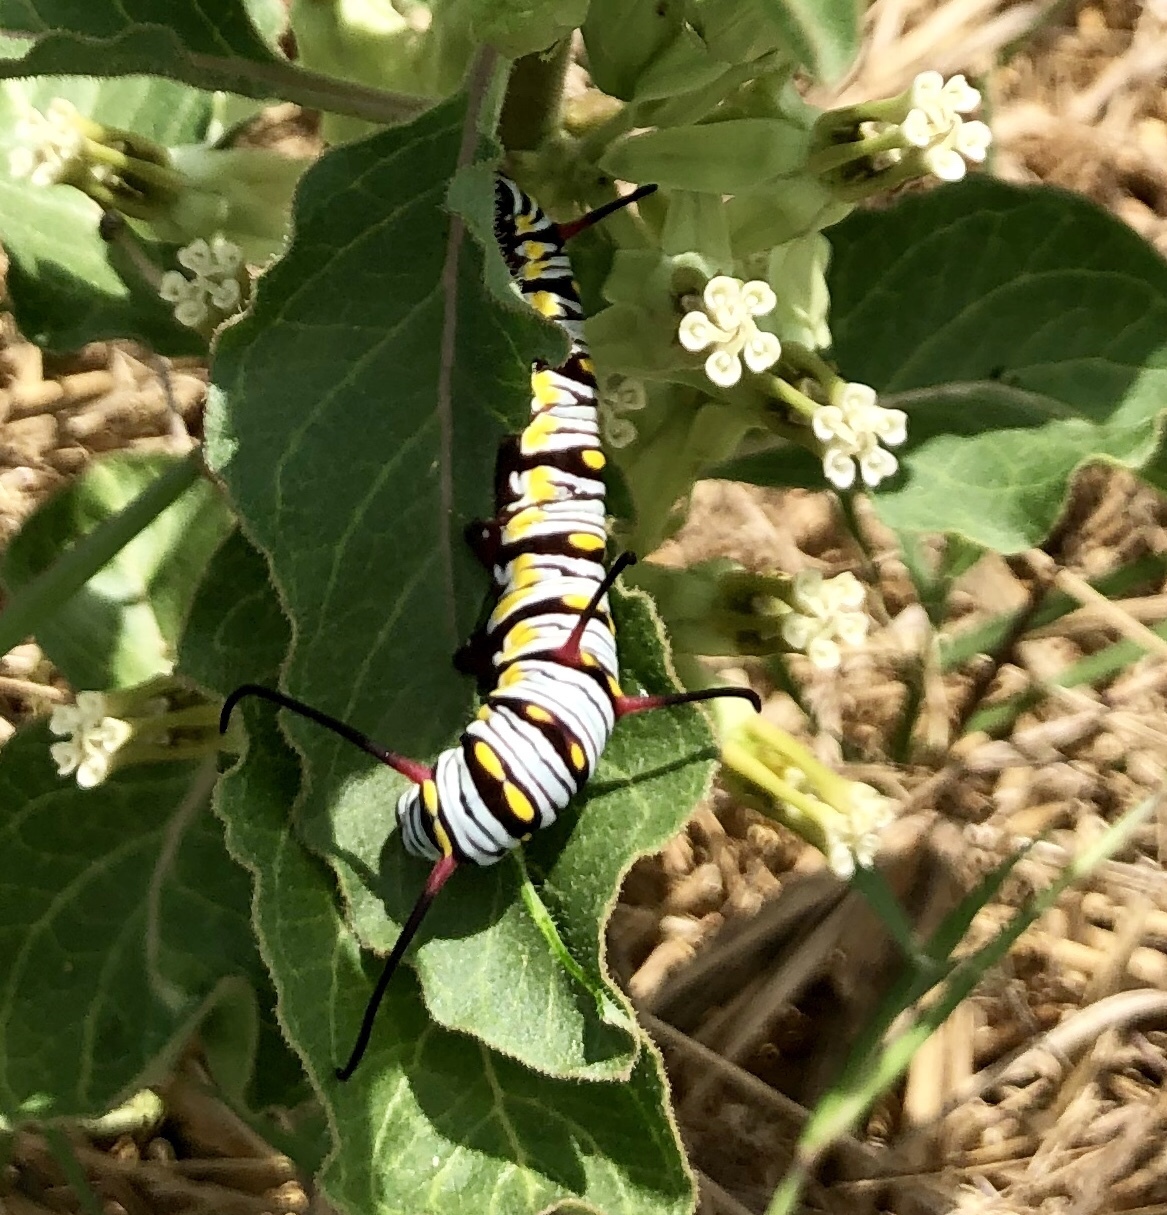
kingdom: Animalia
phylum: Arthropoda
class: Insecta
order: Lepidoptera
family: Nymphalidae
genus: Danaus
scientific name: Danaus gilippus
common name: Queen
